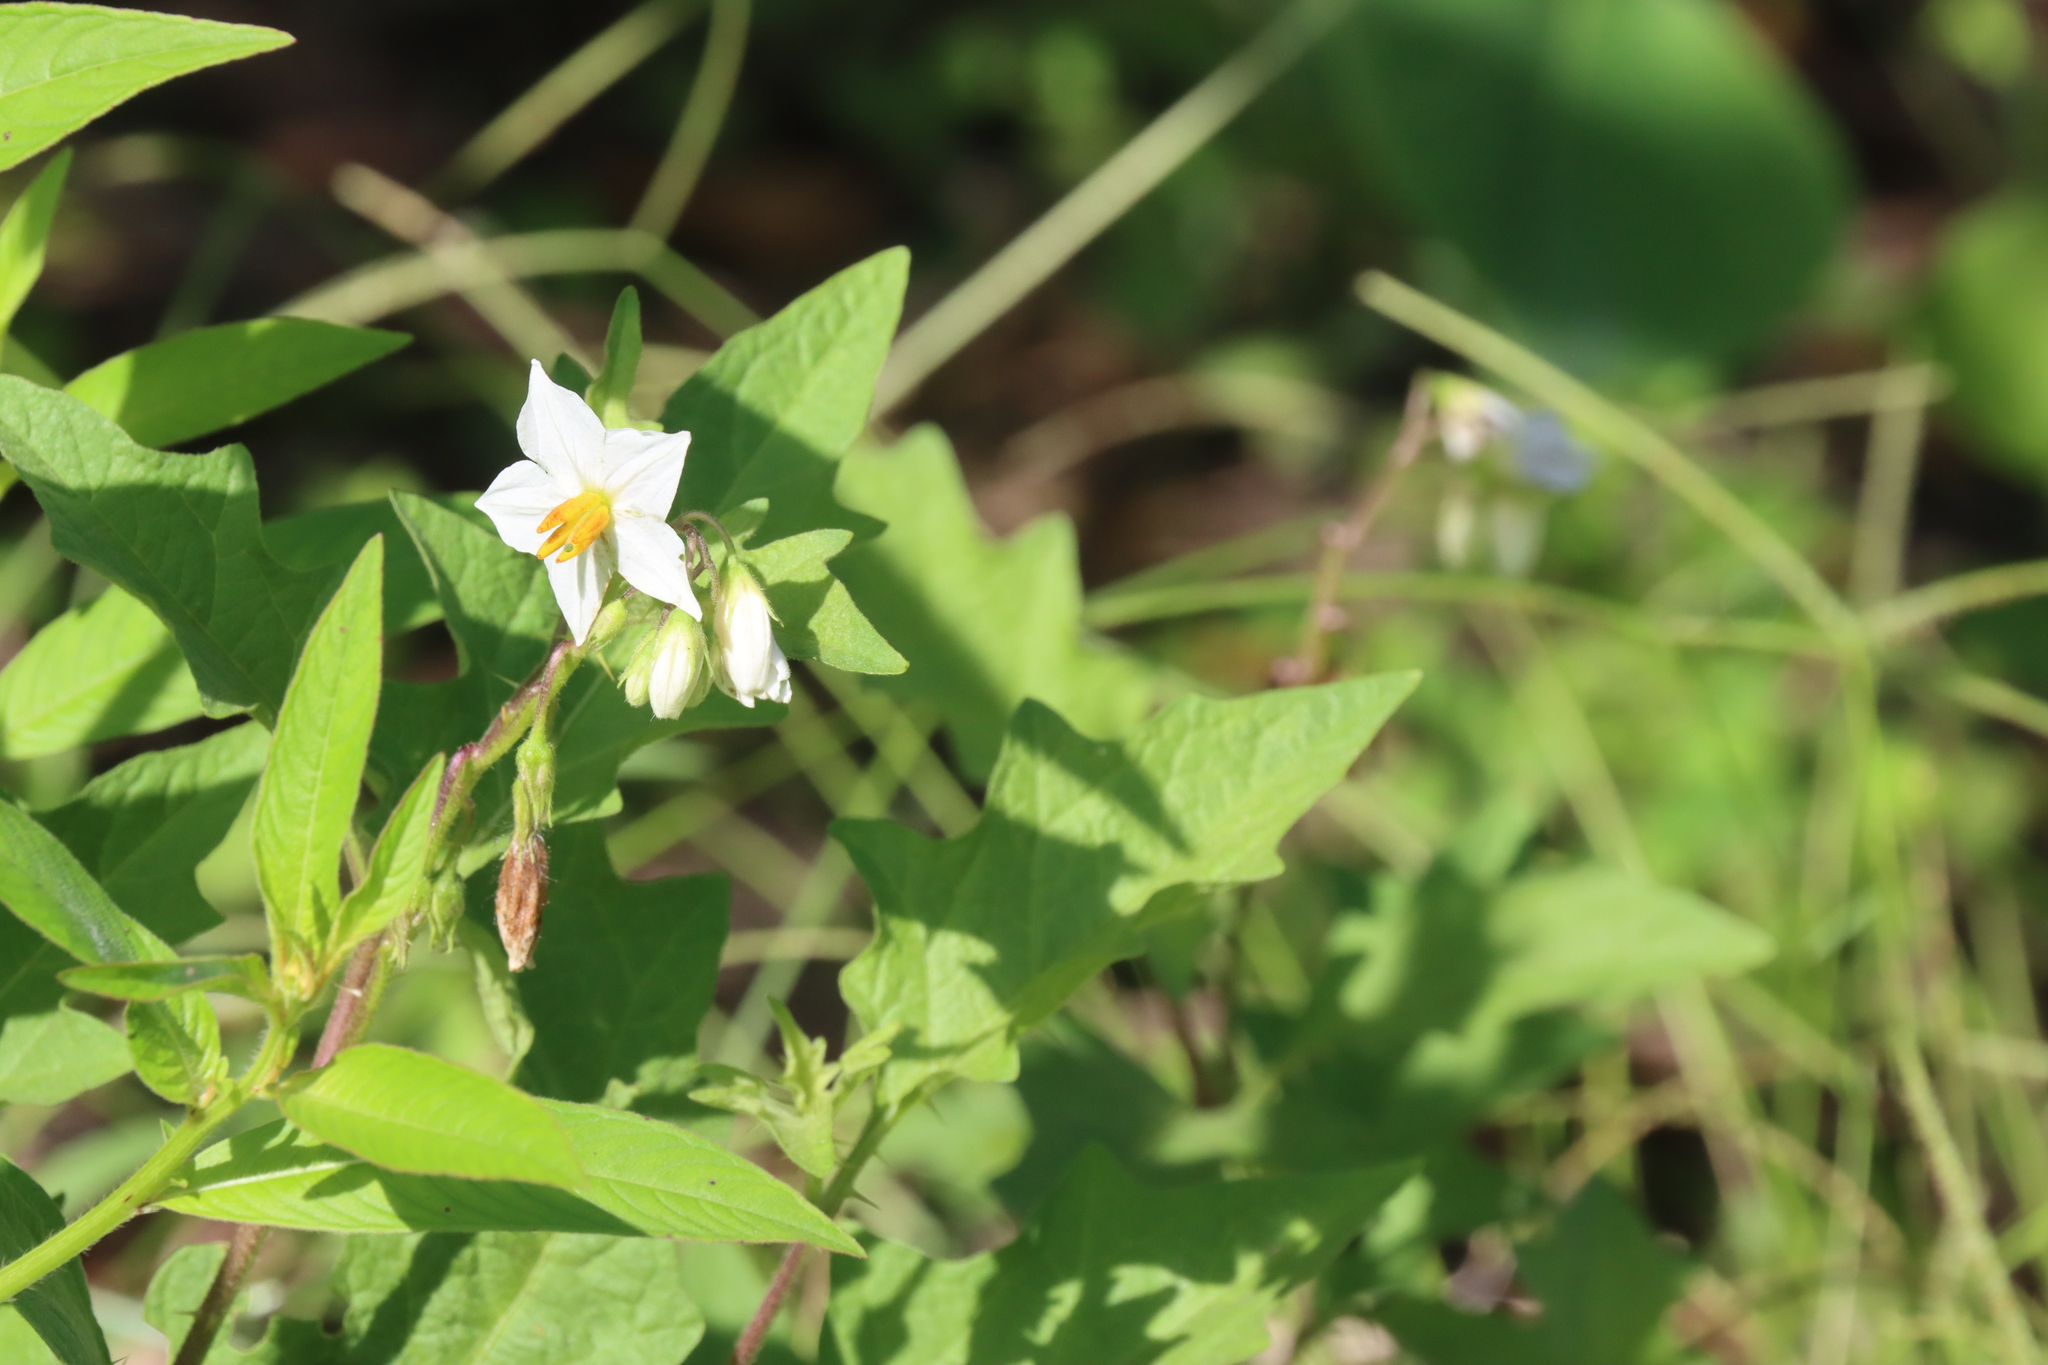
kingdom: Plantae
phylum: Tracheophyta
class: Magnoliopsida
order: Solanales
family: Solanaceae
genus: Solanum
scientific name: Solanum carolinense
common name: Horse-nettle
